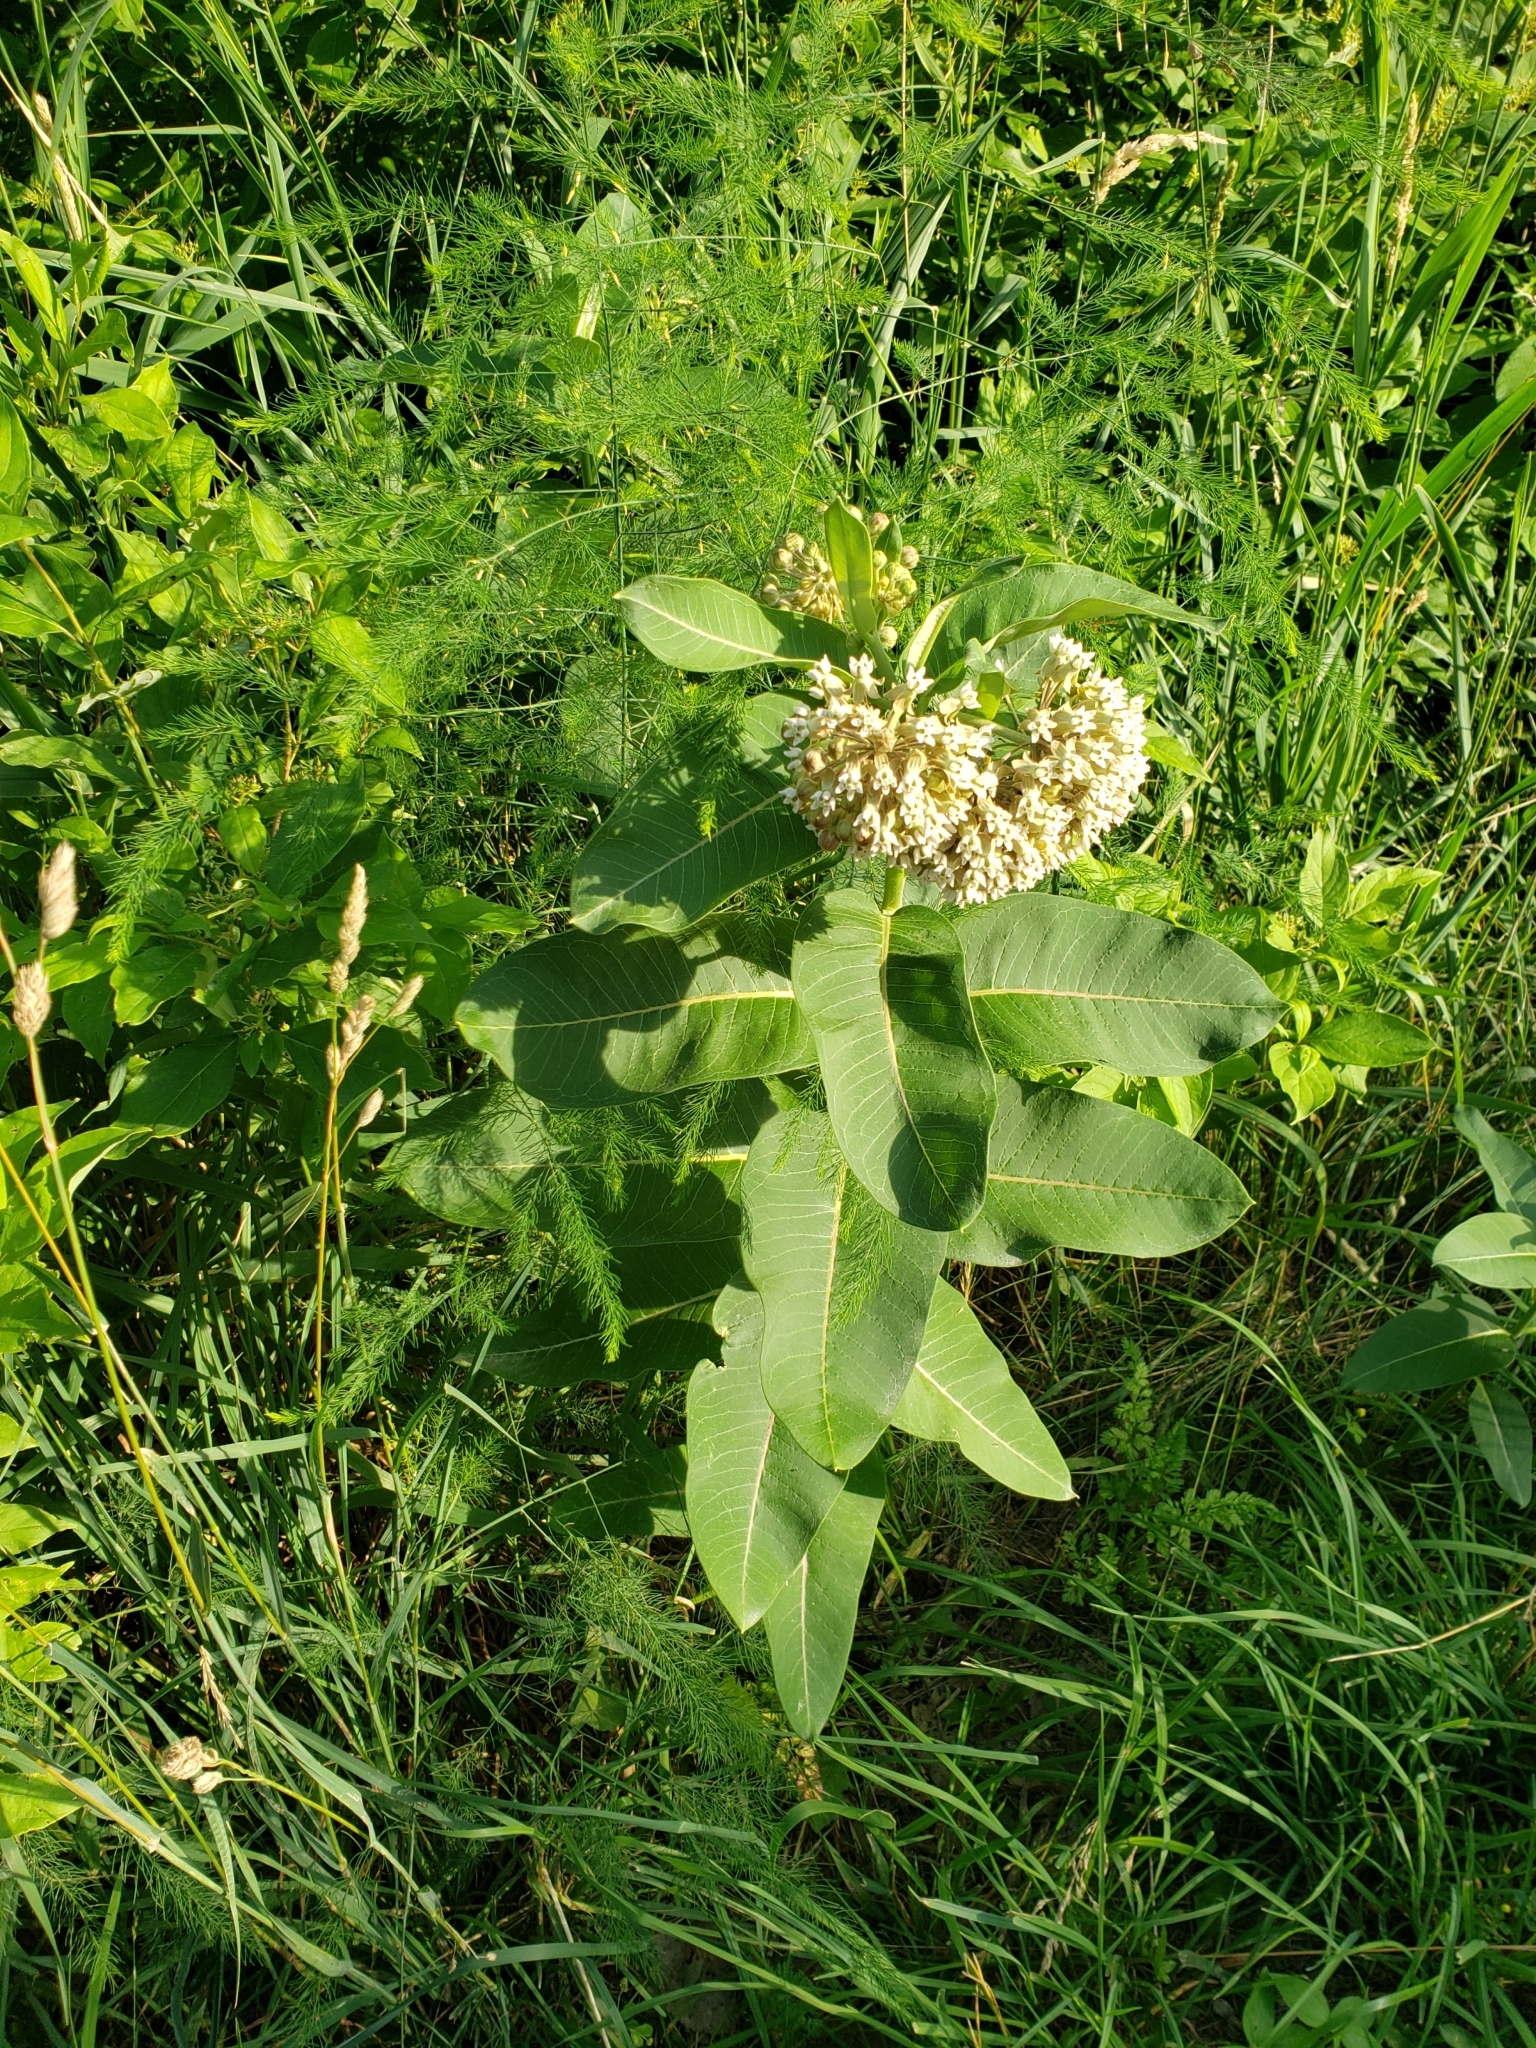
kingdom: Plantae
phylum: Tracheophyta
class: Magnoliopsida
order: Gentianales
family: Apocynaceae
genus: Asclepias
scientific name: Asclepias syriaca
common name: Common milkweed
